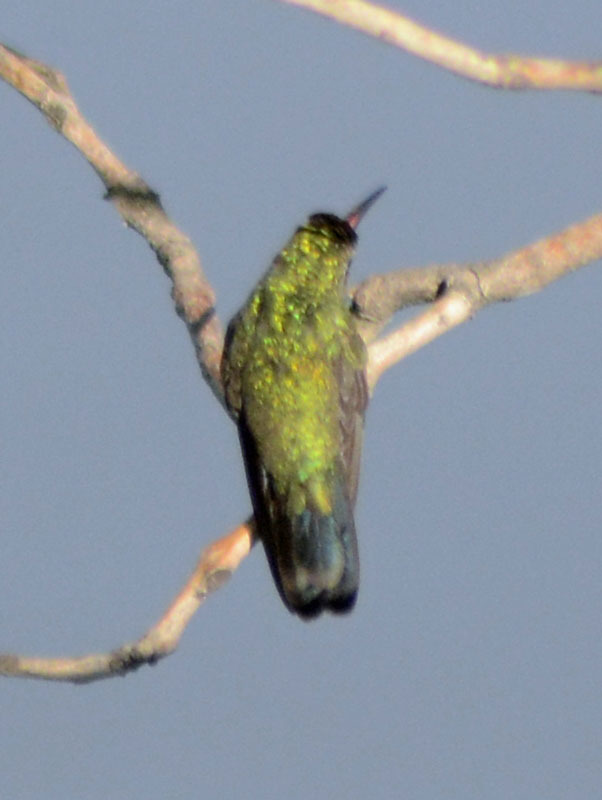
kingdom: Animalia
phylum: Chordata
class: Aves
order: Apodiformes
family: Trochilidae
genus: Cynanthus
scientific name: Cynanthus latirostris
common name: Broad-billed hummingbird
